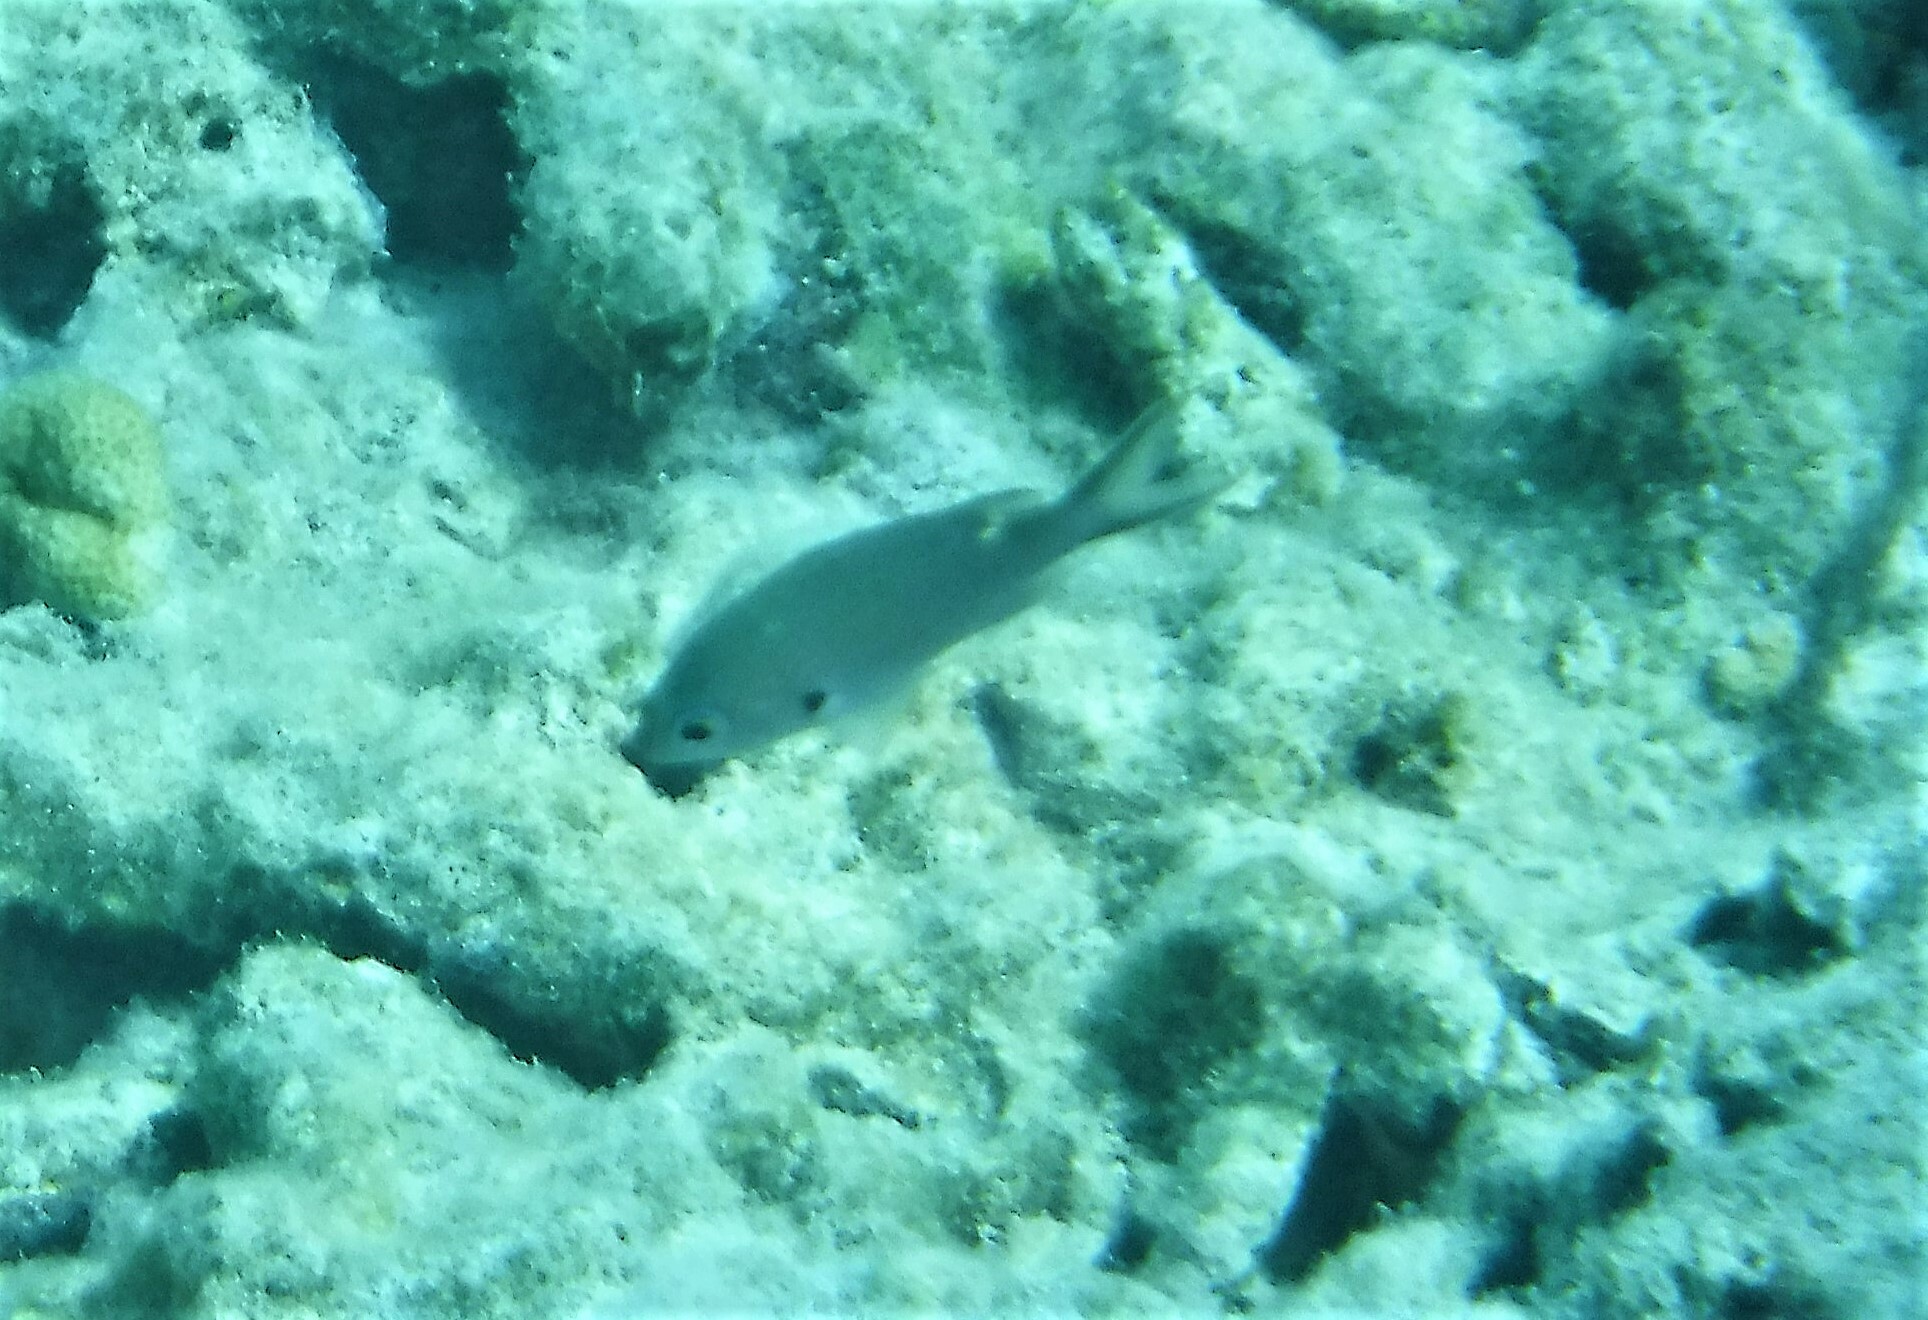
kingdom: Animalia
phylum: Chordata
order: Perciformes
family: Pomacentridae
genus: Chromis
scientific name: Chromis multilineata
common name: Brown chromis
